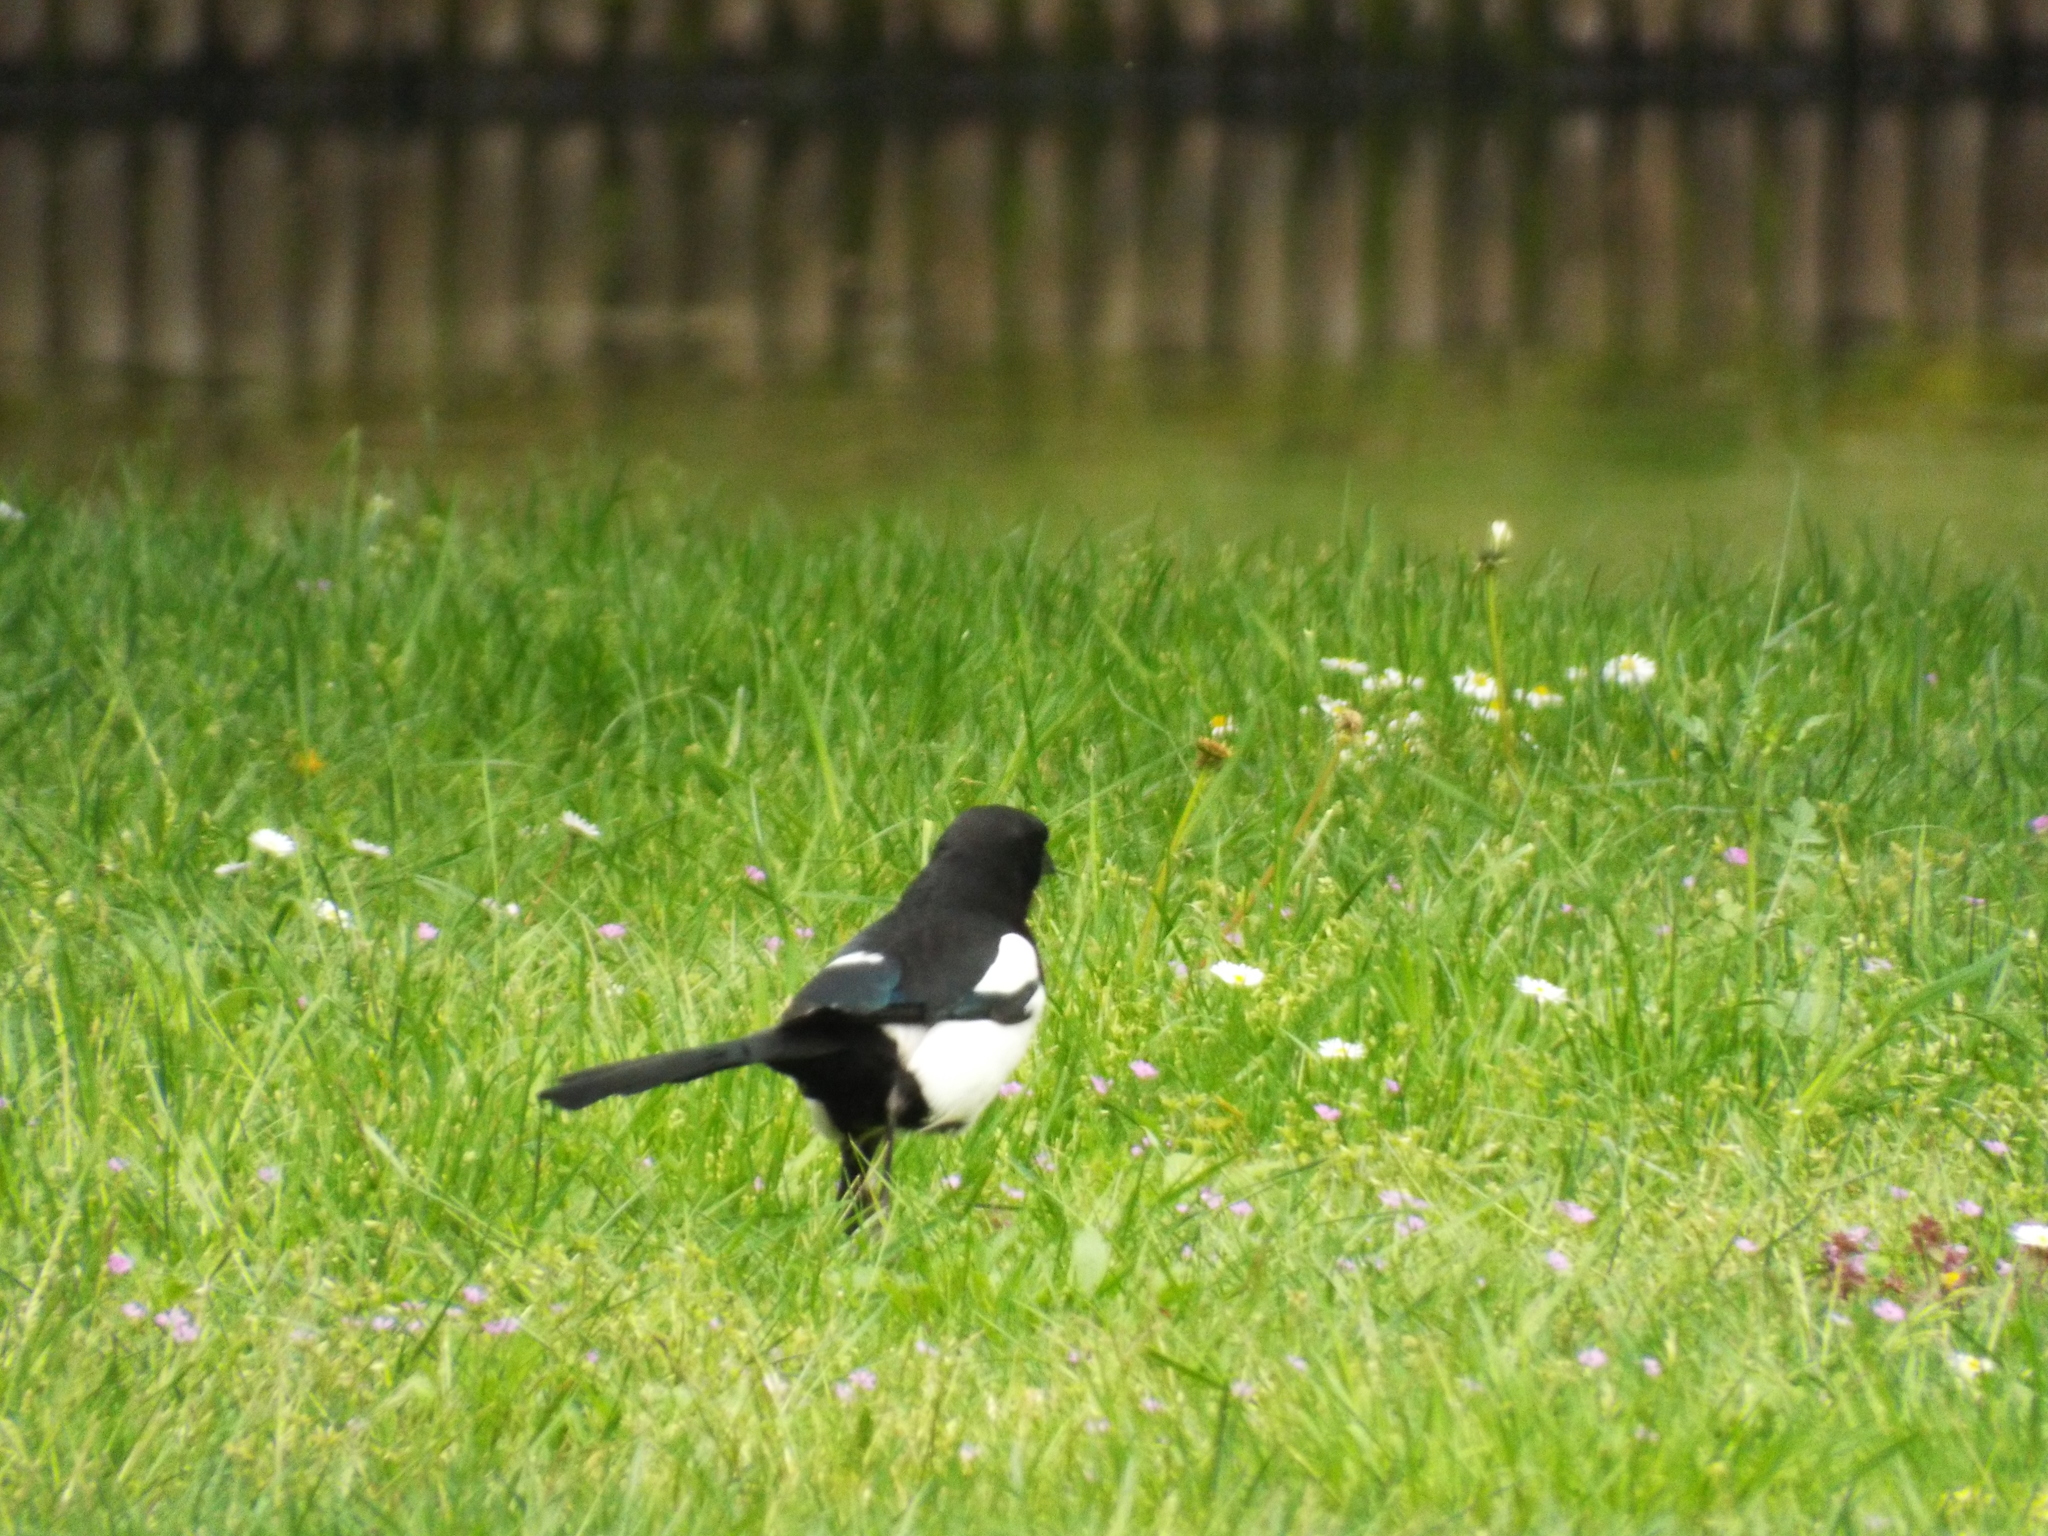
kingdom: Animalia
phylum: Chordata
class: Aves
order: Passeriformes
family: Corvidae
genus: Pica
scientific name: Pica pica
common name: Eurasian magpie
